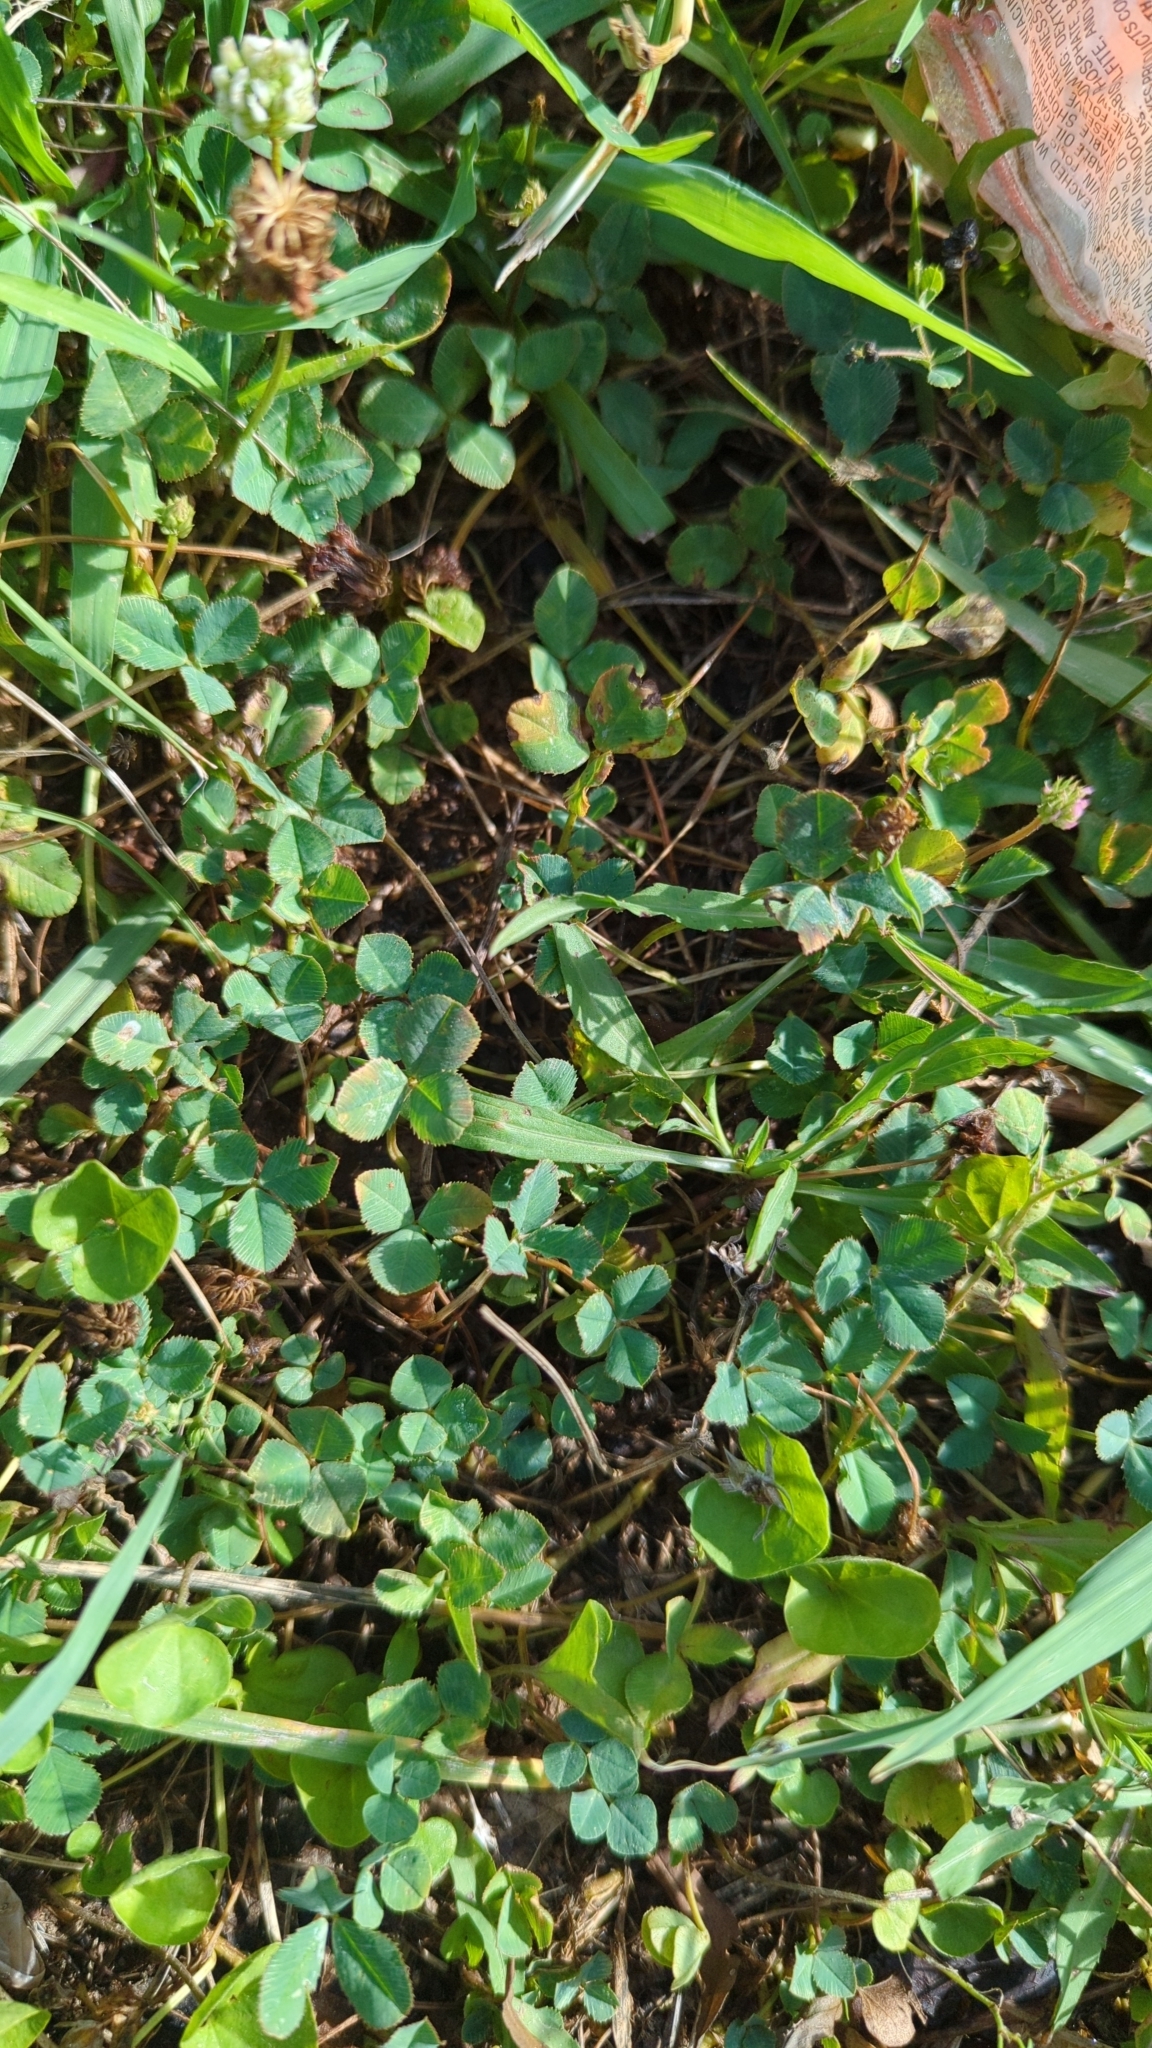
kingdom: Plantae
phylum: Tracheophyta
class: Magnoliopsida
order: Fabales
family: Fabaceae
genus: Trifolium
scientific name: Trifolium repens
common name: White clover
